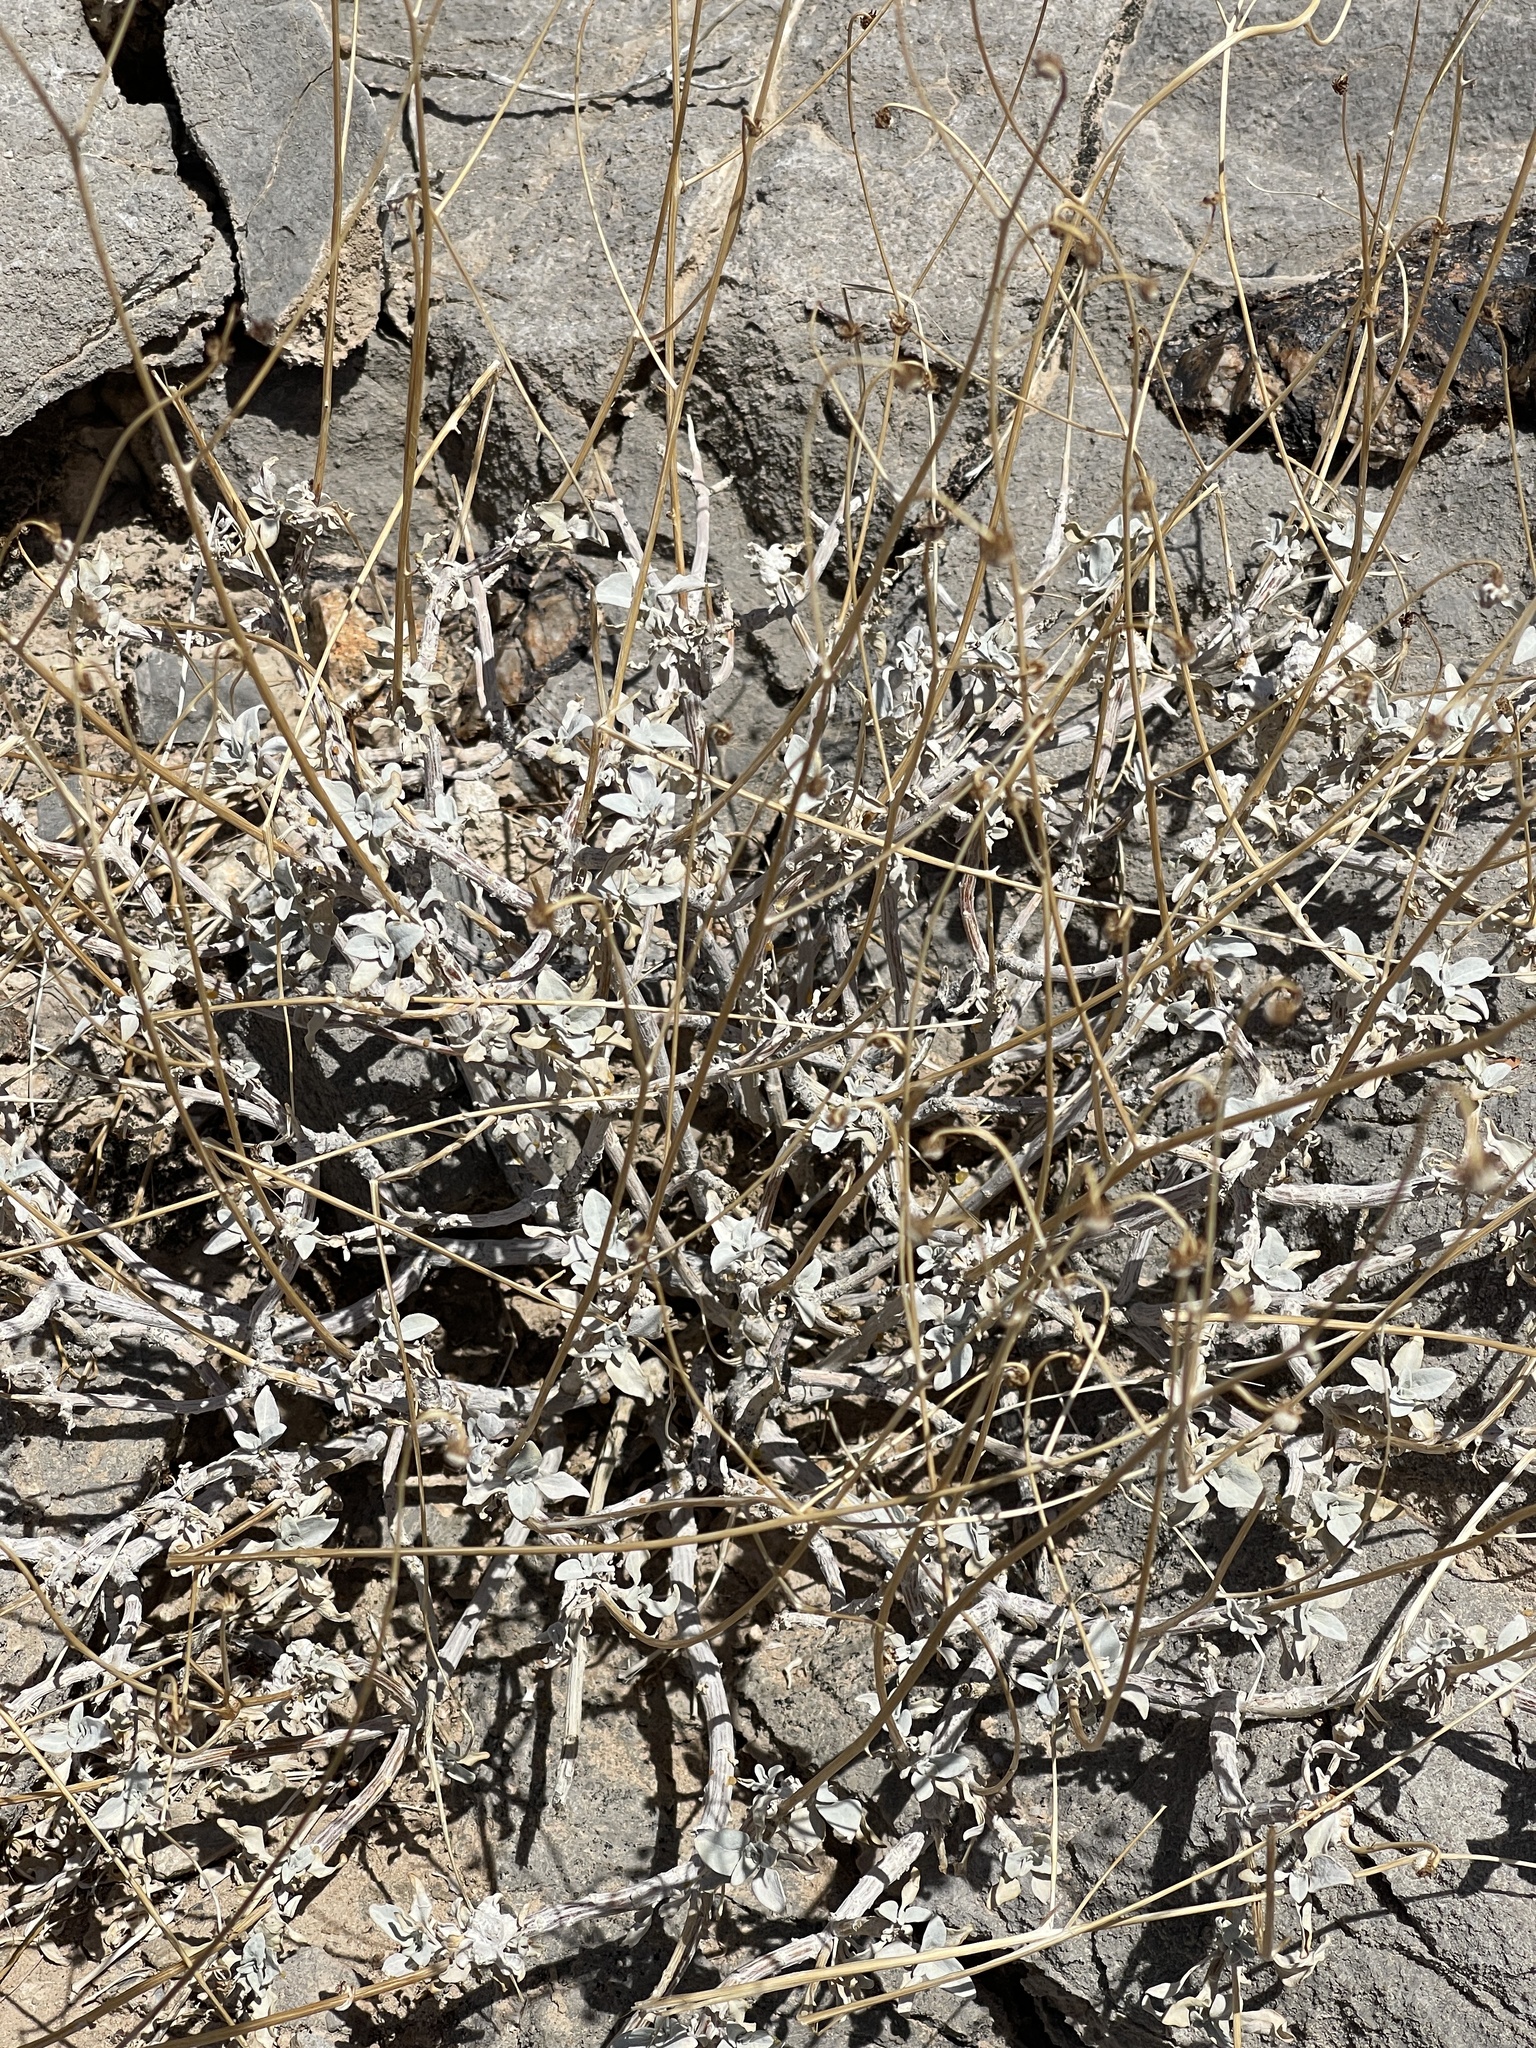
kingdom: Plantae
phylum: Tracheophyta
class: Magnoliopsida
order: Asterales
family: Asteraceae
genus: Encelia
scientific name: Encelia farinosa
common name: Brittlebush
